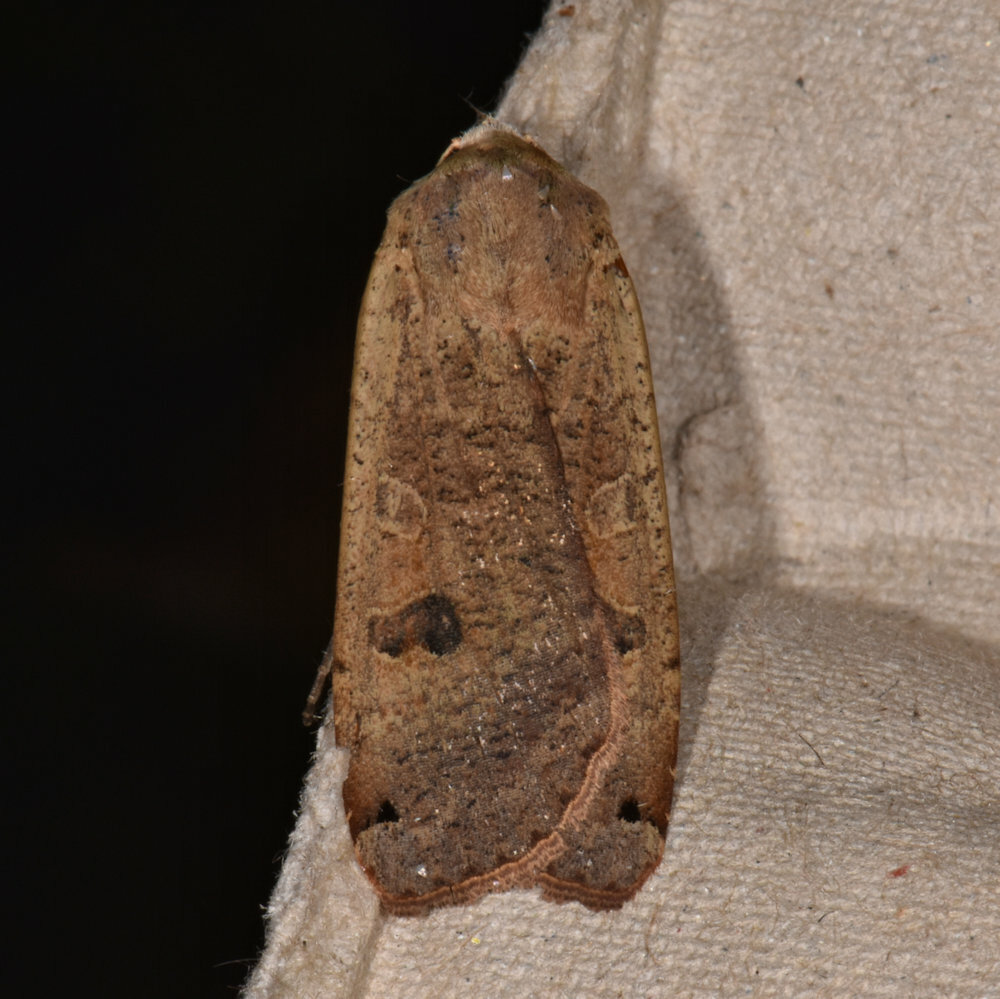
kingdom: Animalia
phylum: Arthropoda
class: Insecta
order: Lepidoptera
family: Noctuidae
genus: Noctua
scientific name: Noctua pronuba
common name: Large yellow underwing
